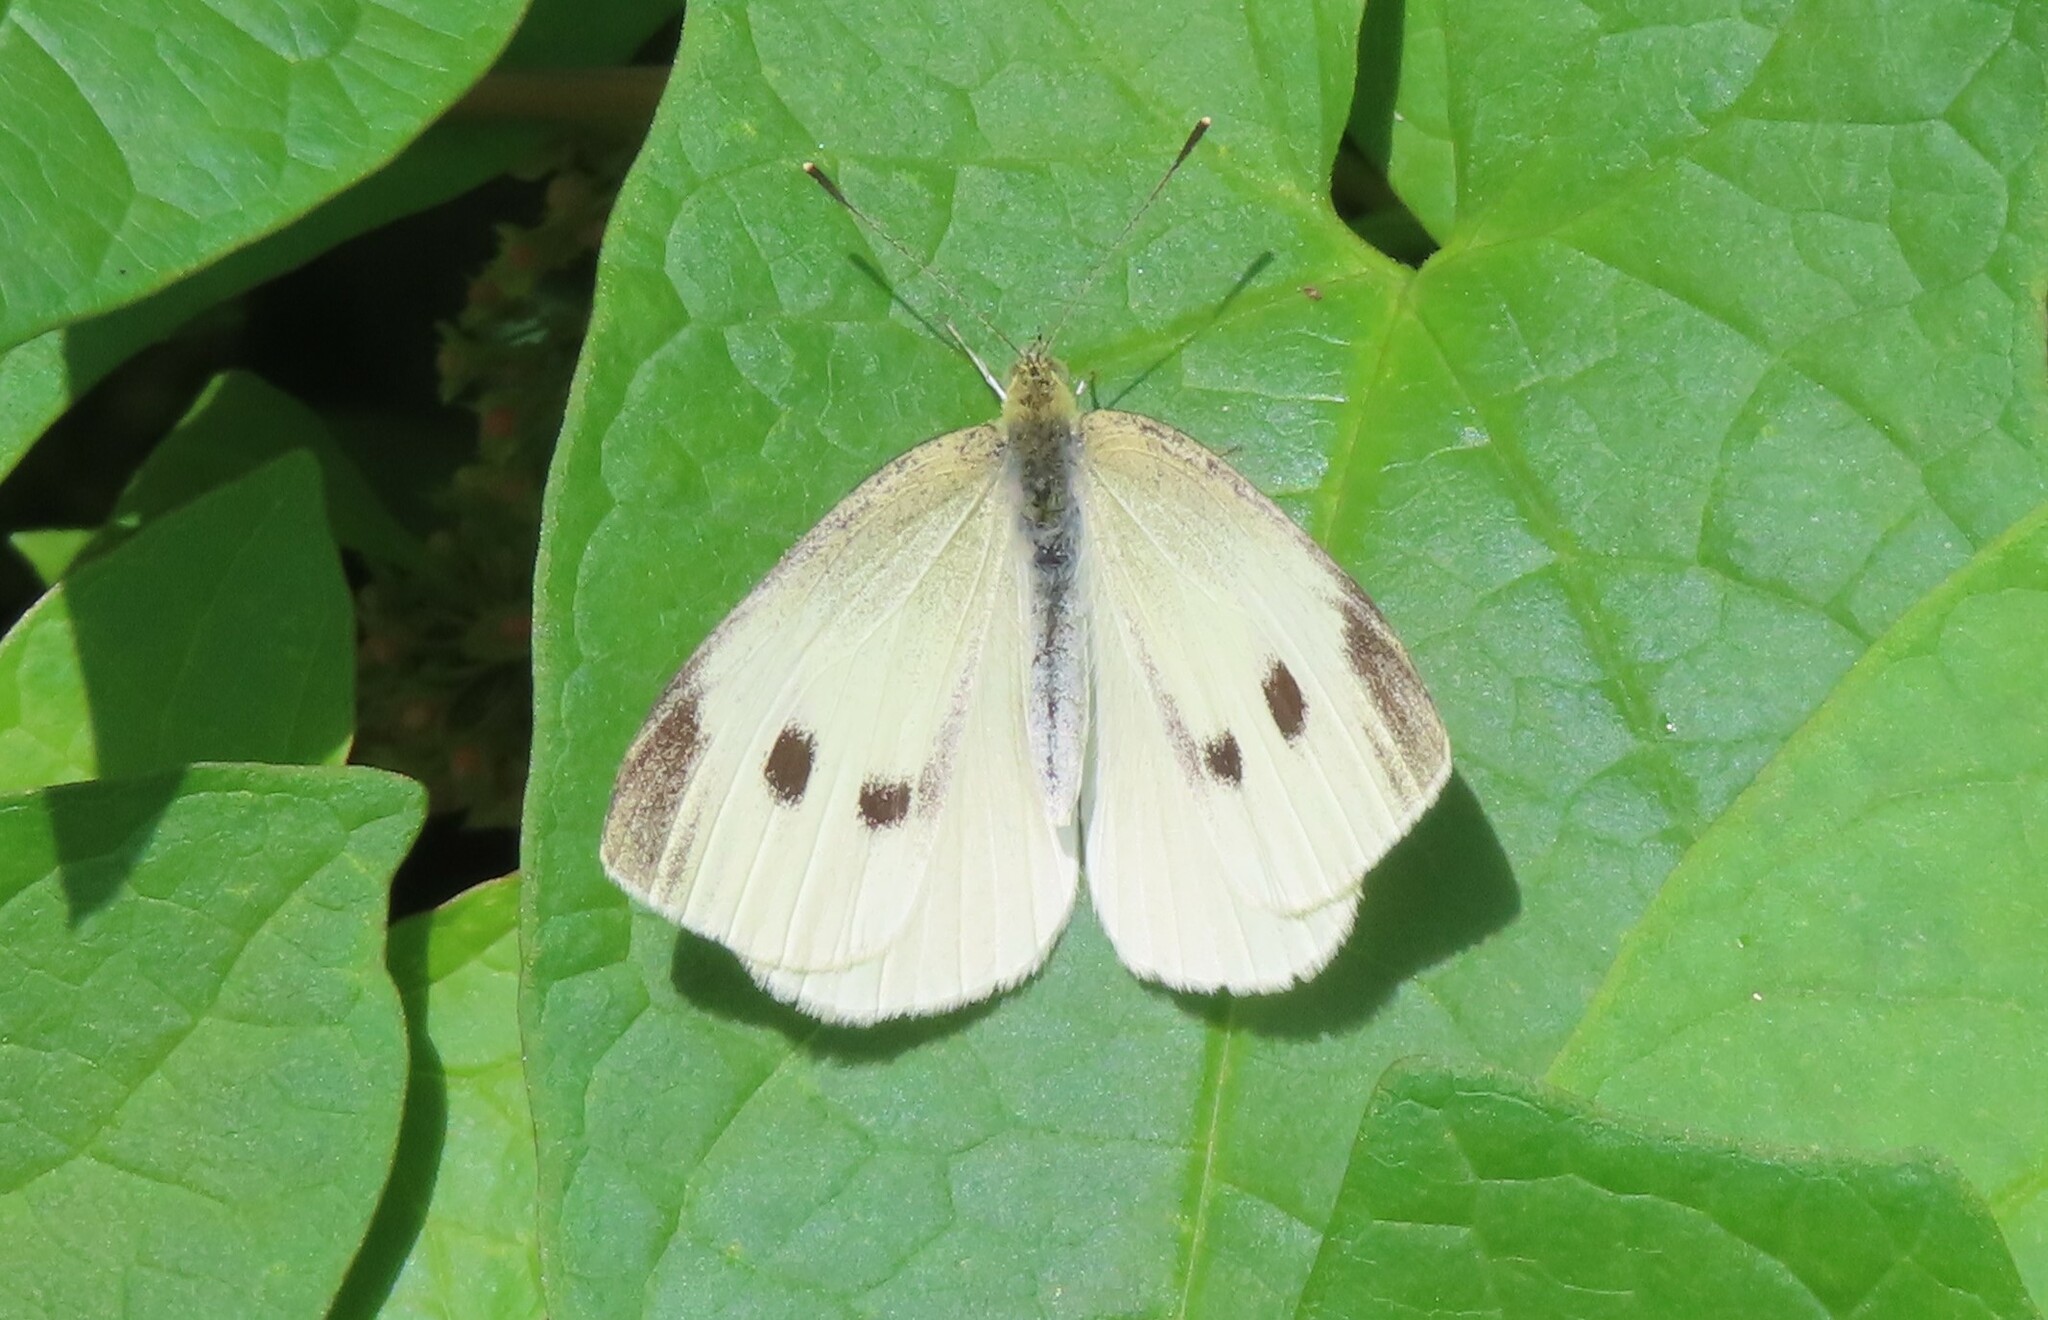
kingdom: Animalia
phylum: Arthropoda
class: Insecta
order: Lepidoptera
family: Pieridae
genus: Pieris
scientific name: Pieris rapae
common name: Small white
